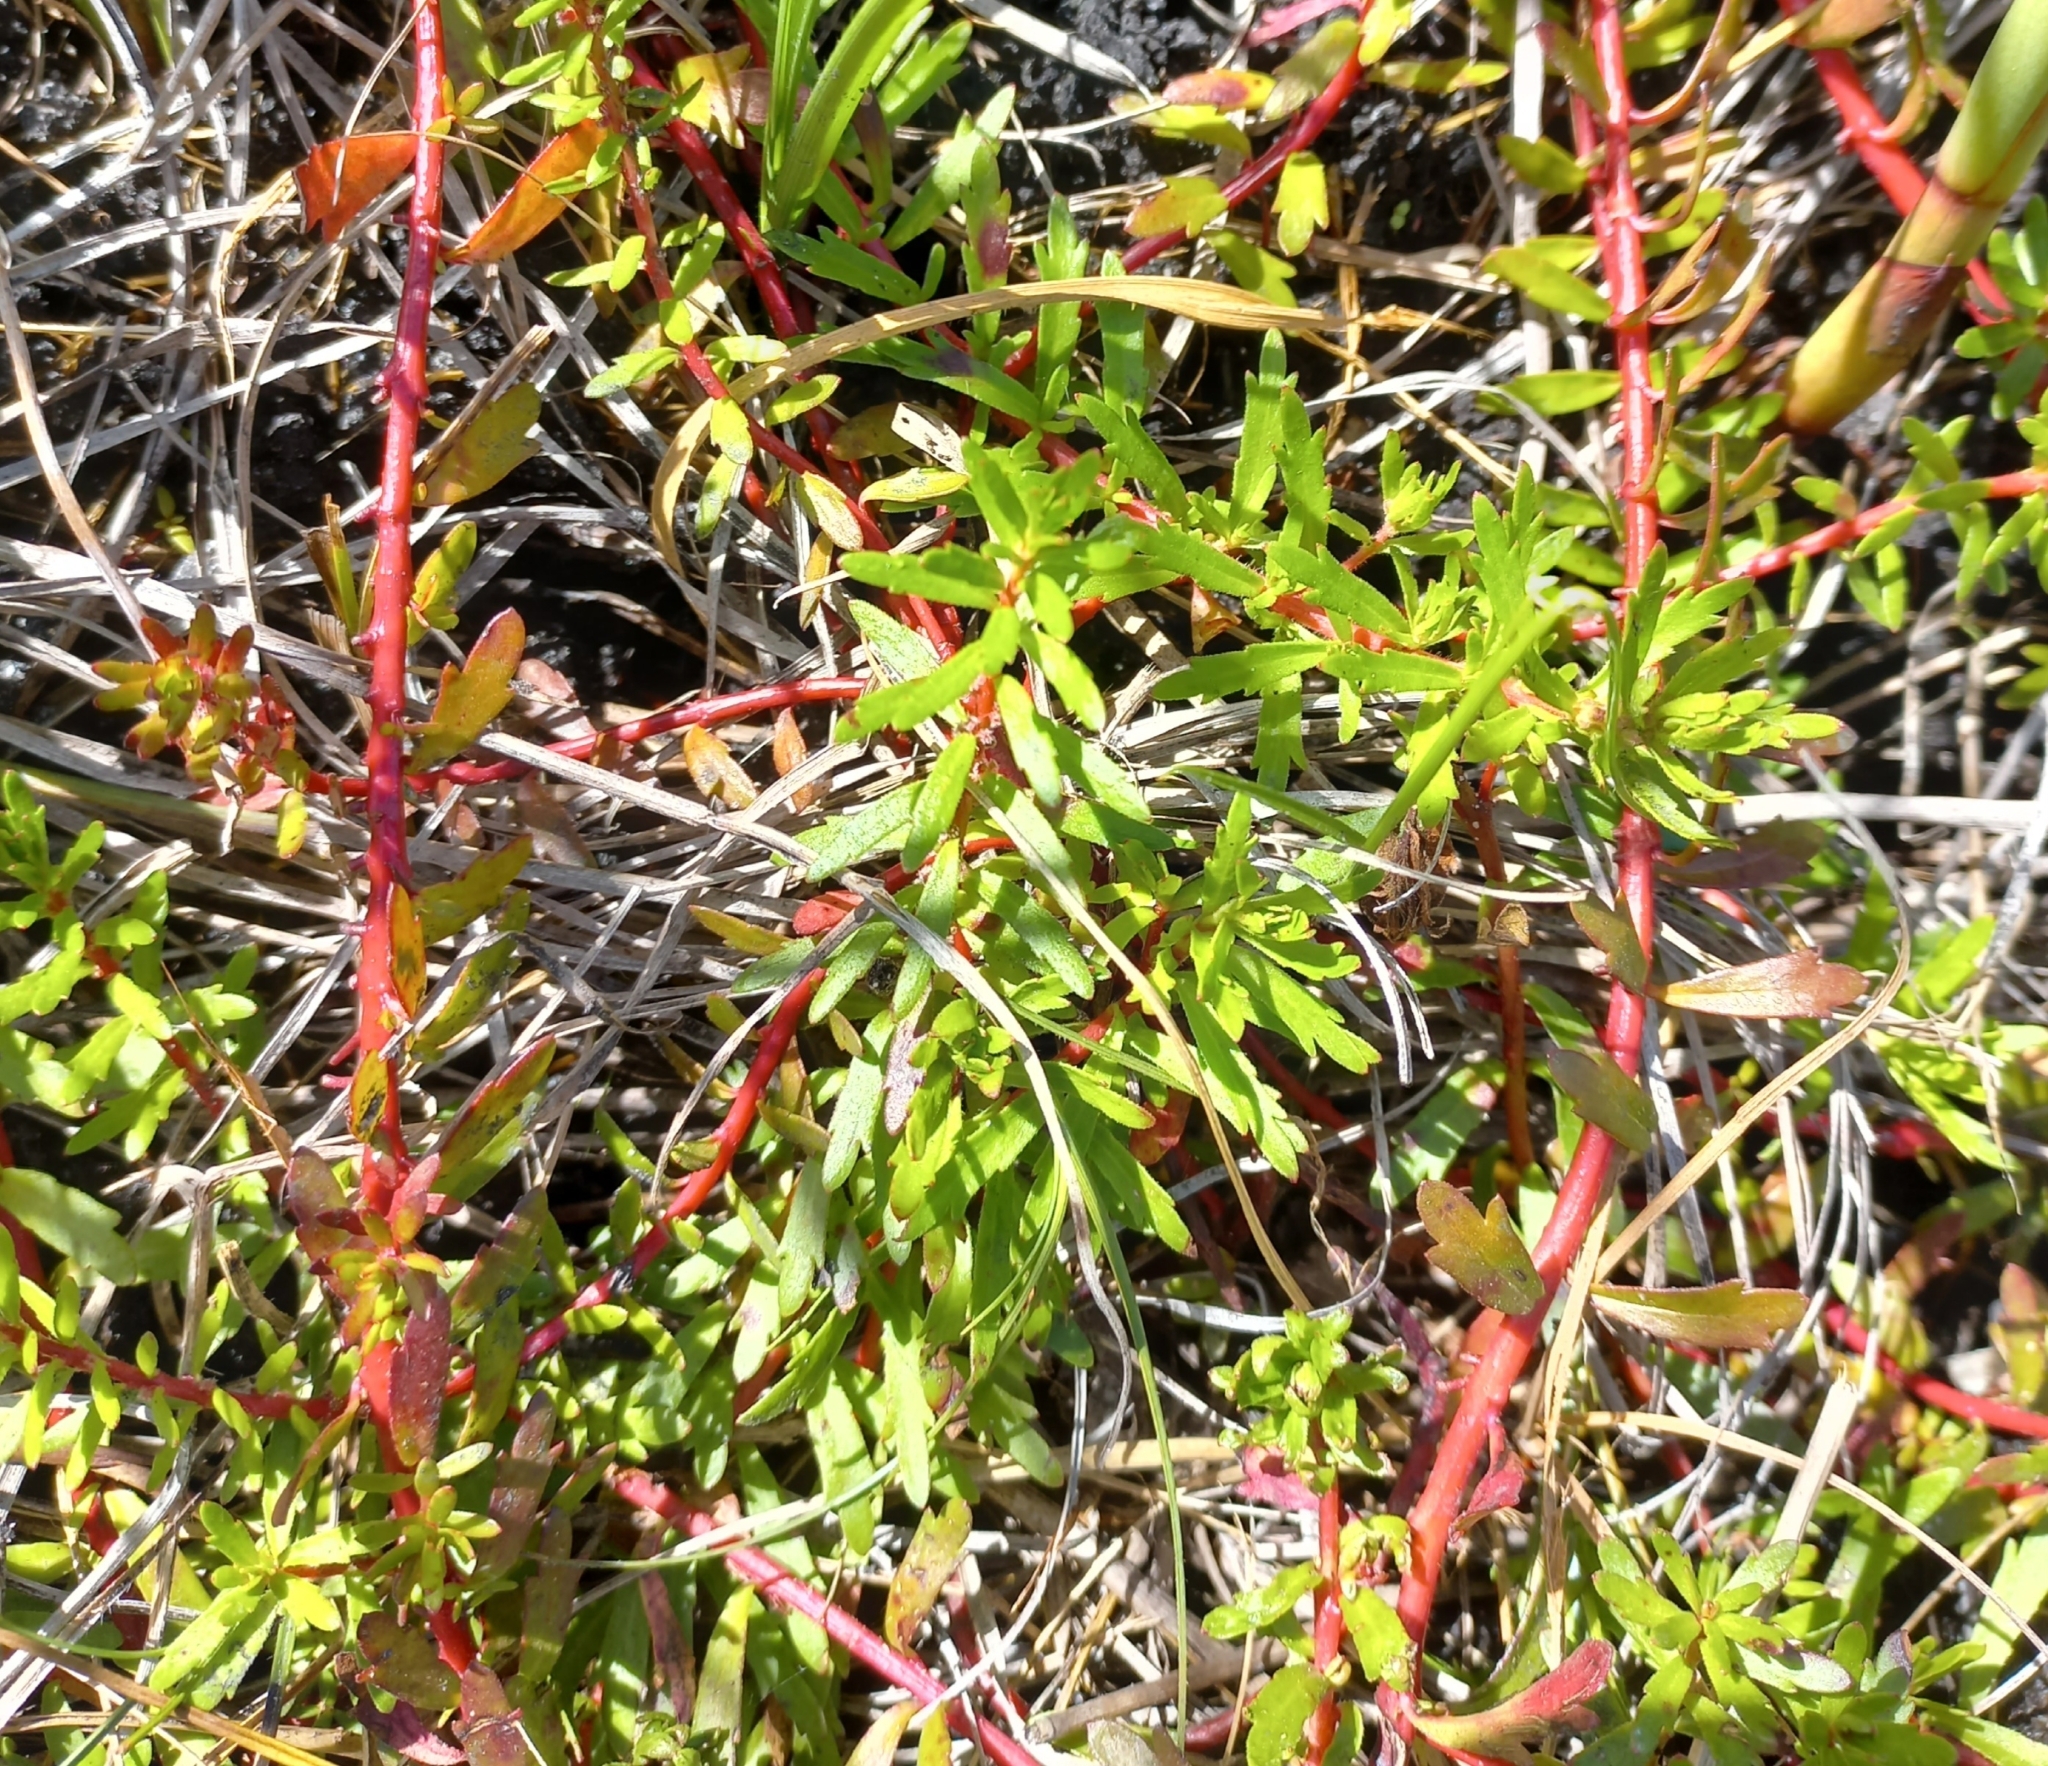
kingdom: Plantae
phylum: Tracheophyta
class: Magnoliopsida
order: Saxifragales
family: Haloragaceae
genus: Laurembergia
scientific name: Laurembergia repens
